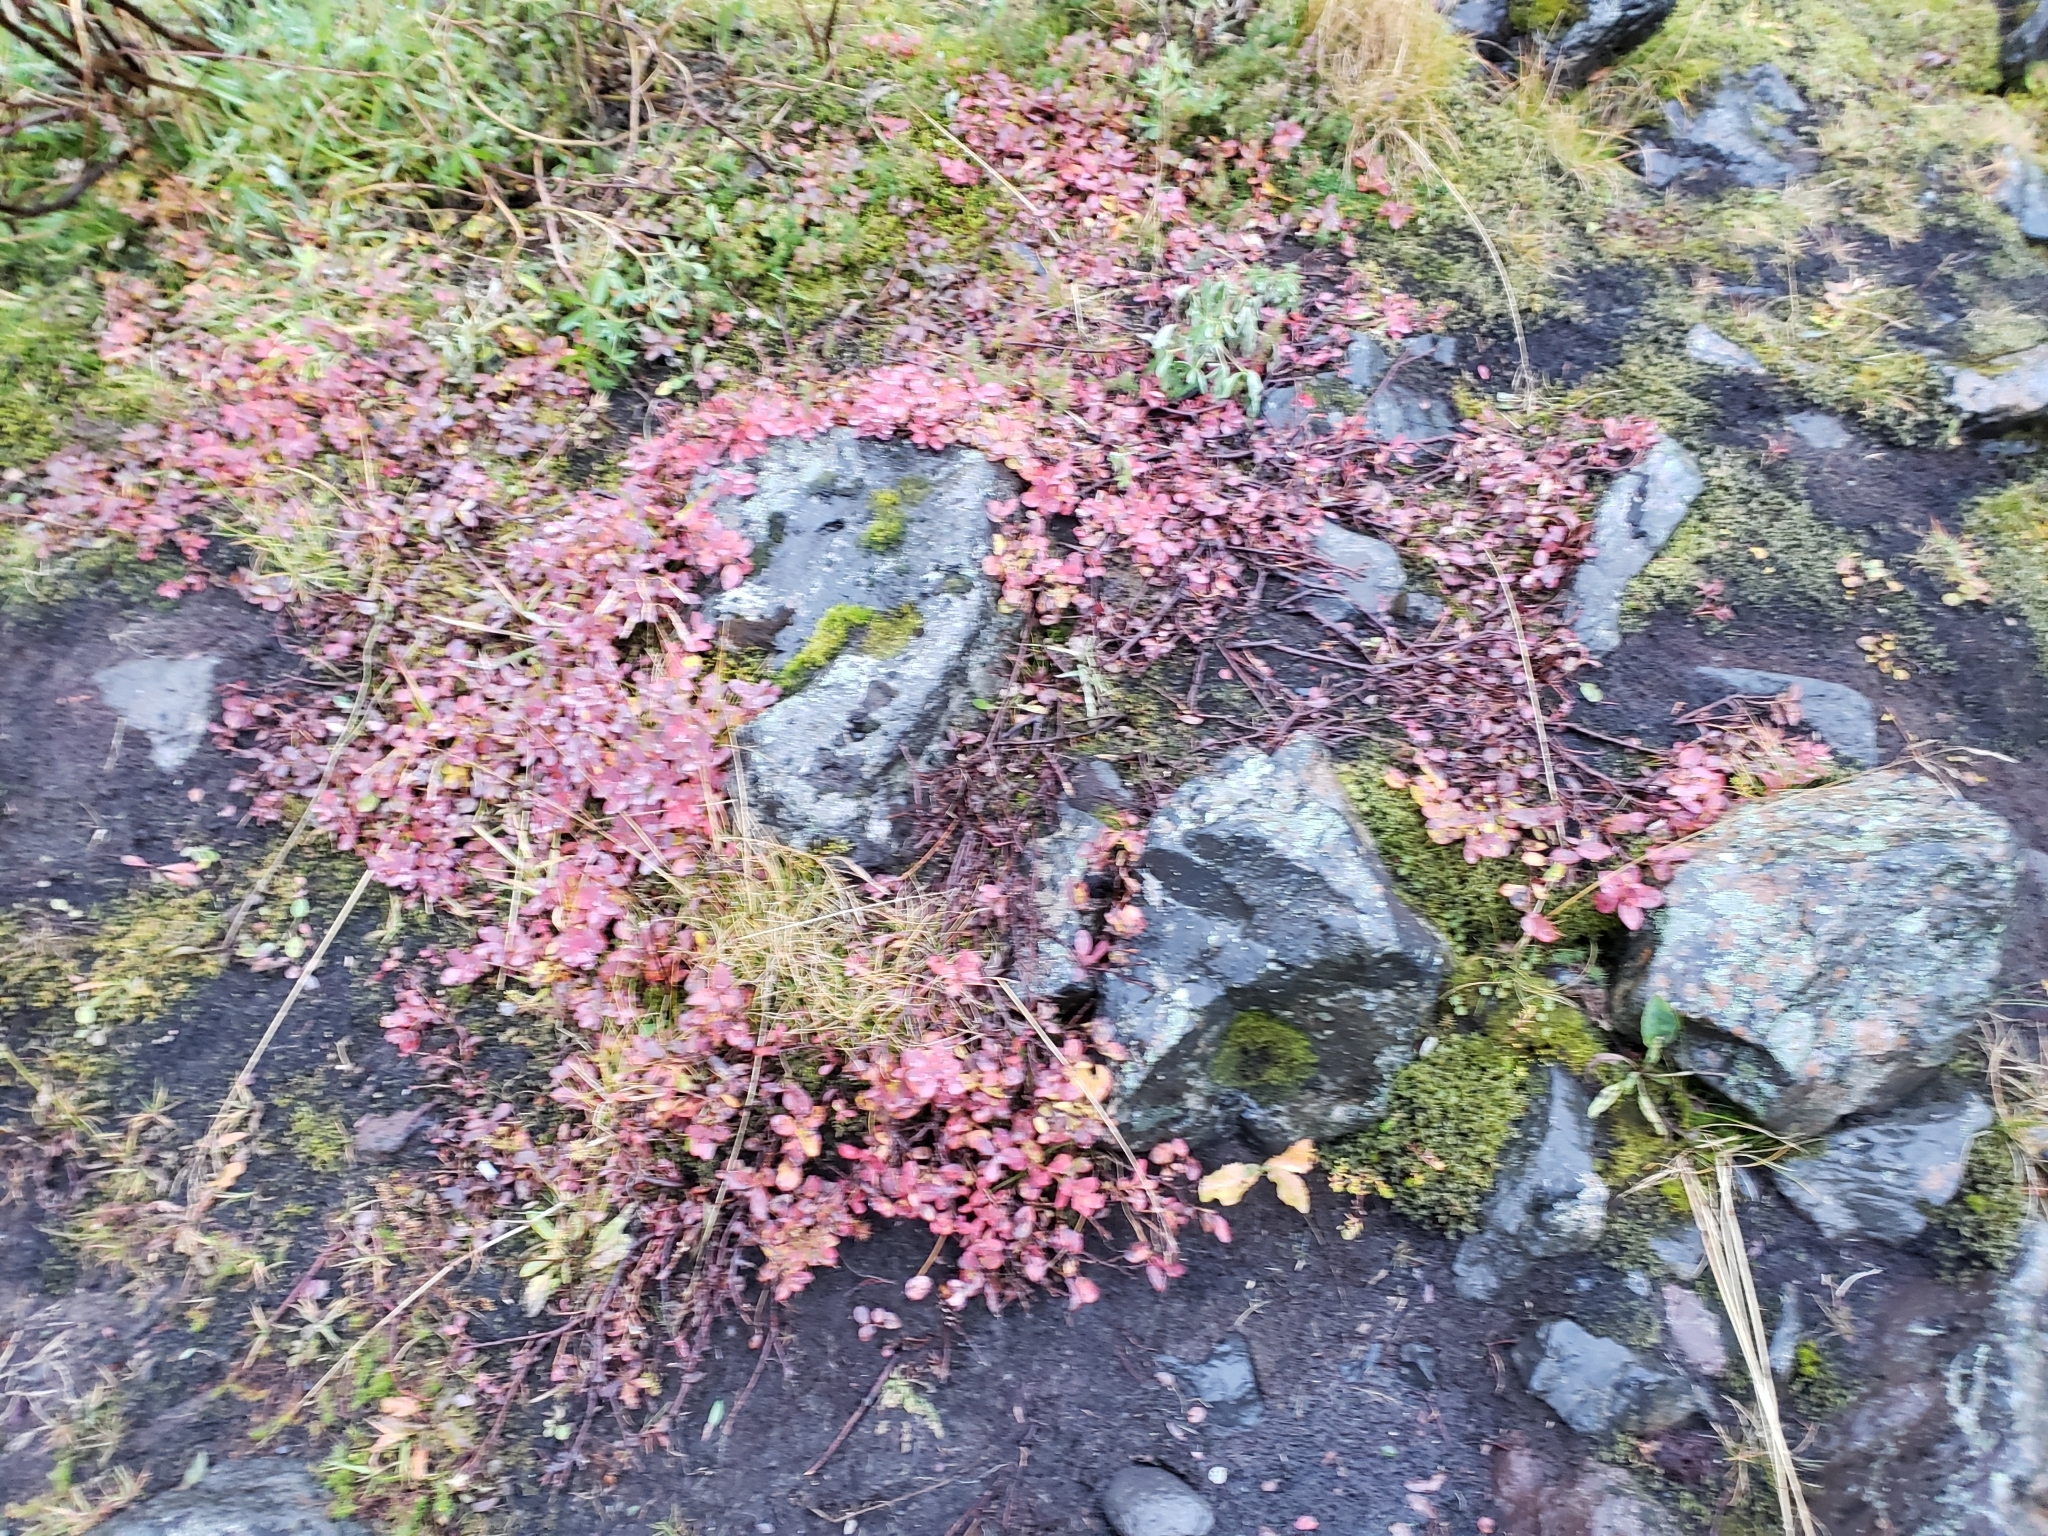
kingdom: Plantae
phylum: Tracheophyta
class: Magnoliopsida
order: Ericales
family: Ericaceae
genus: Vaccinium
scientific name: Vaccinium uliginosum
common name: Bog bilberry
